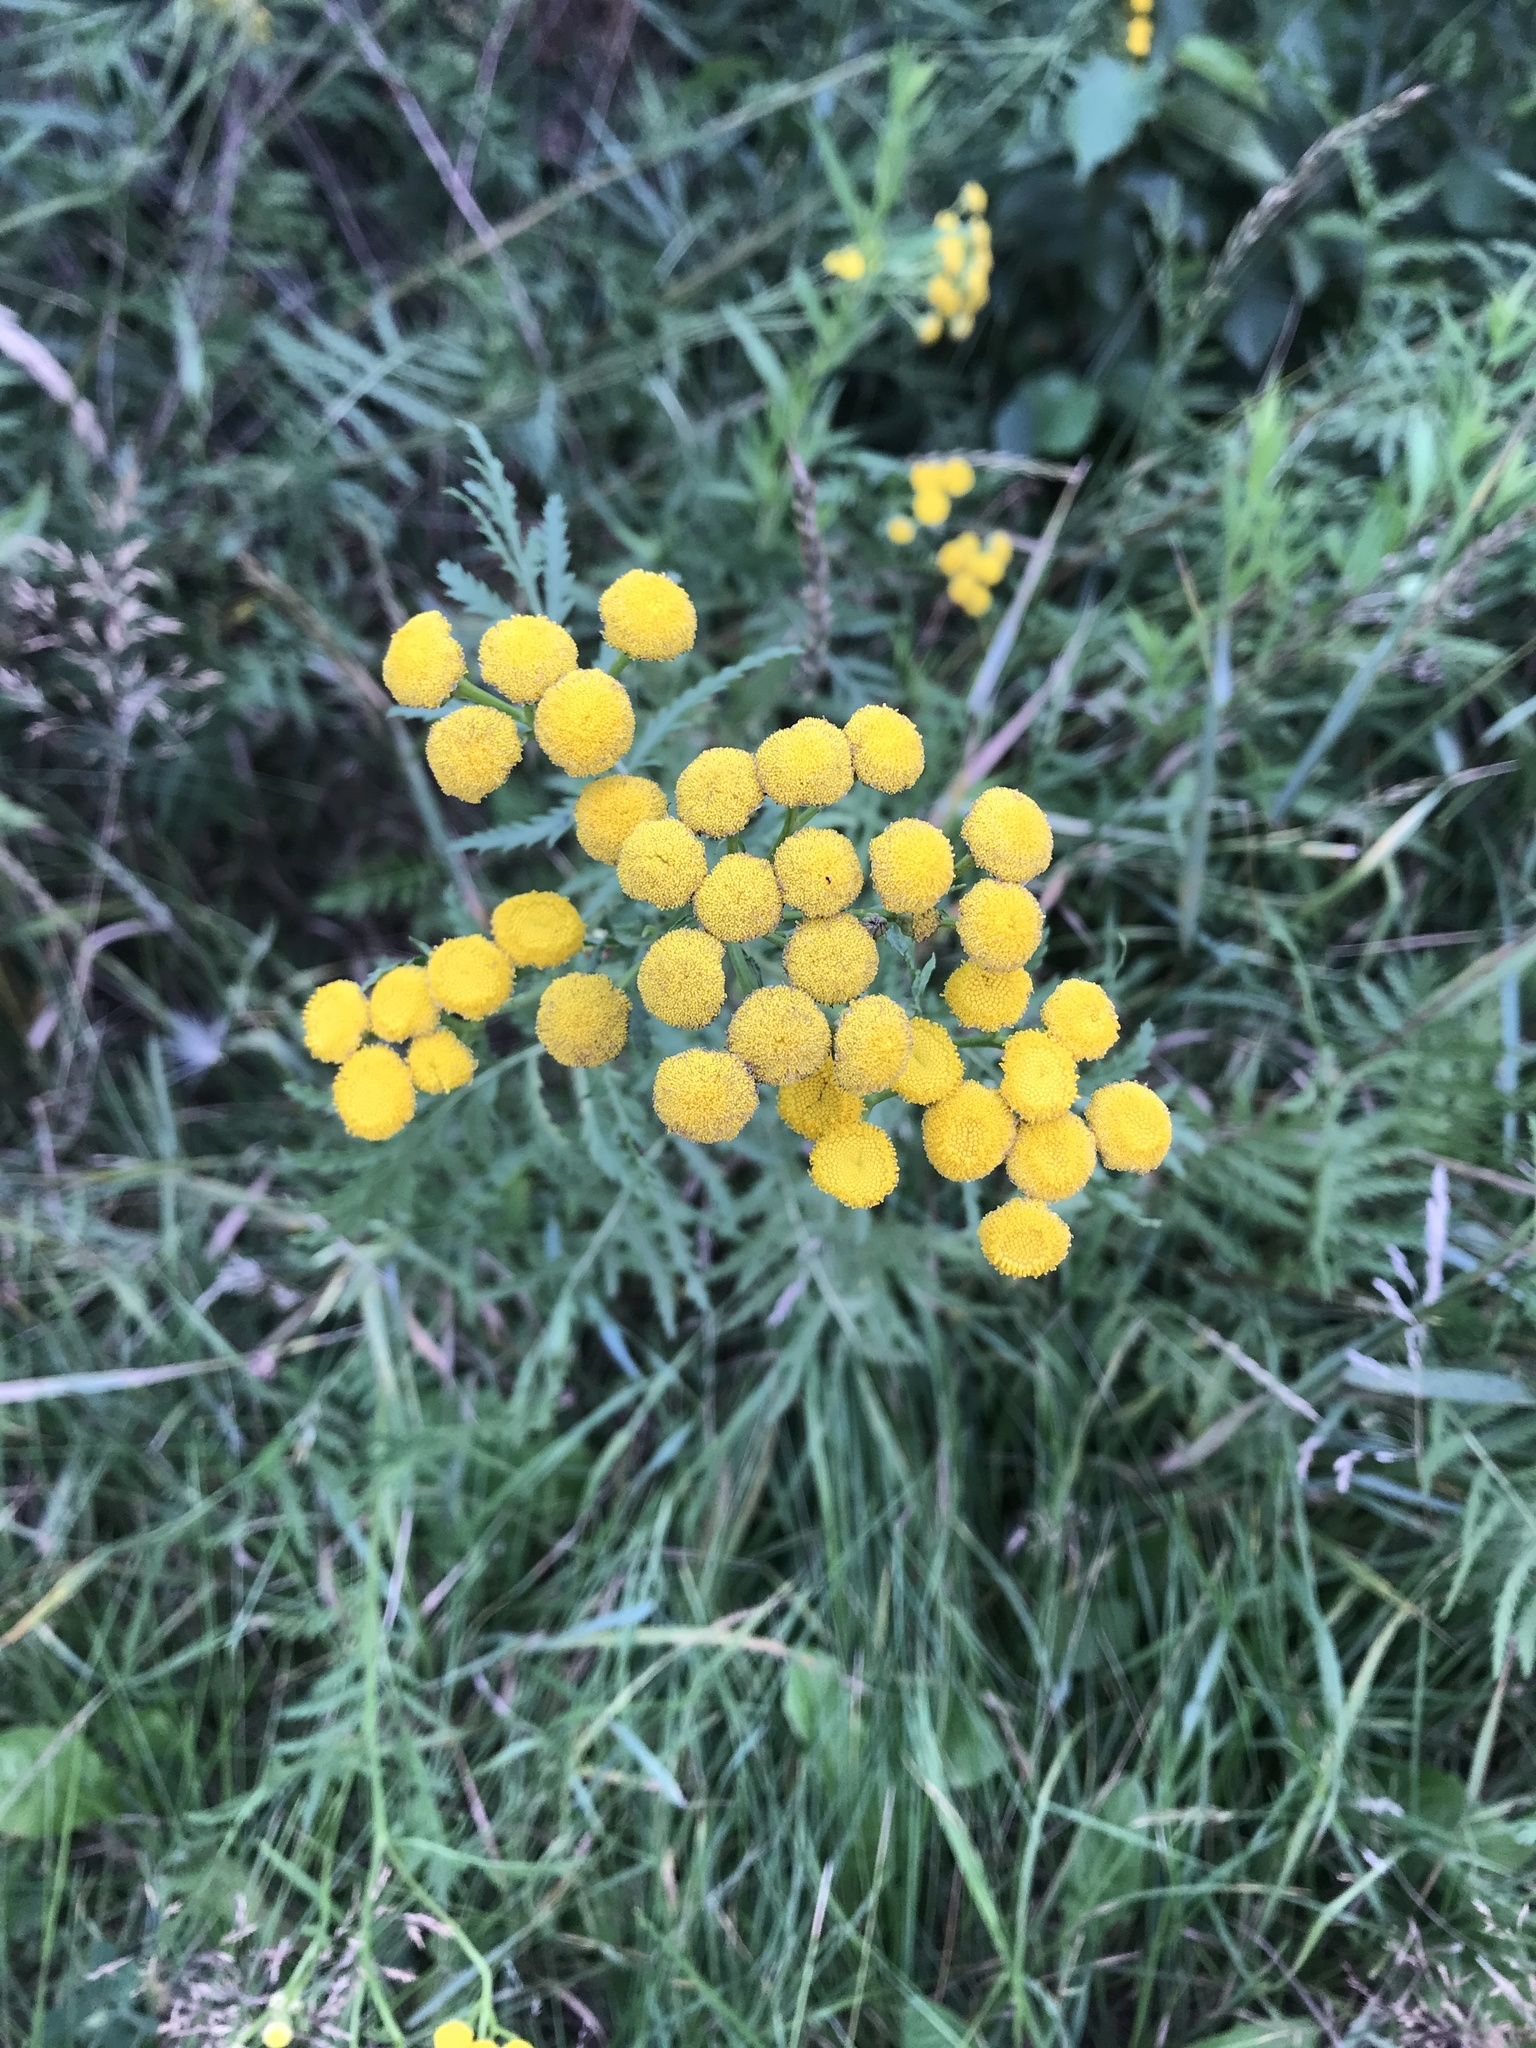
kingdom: Plantae
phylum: Tracheophyta
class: Magnoliopsida
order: Asterales
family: Asteraceae
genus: Tanacetum
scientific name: Tanacetum vulgare
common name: Common tansy
